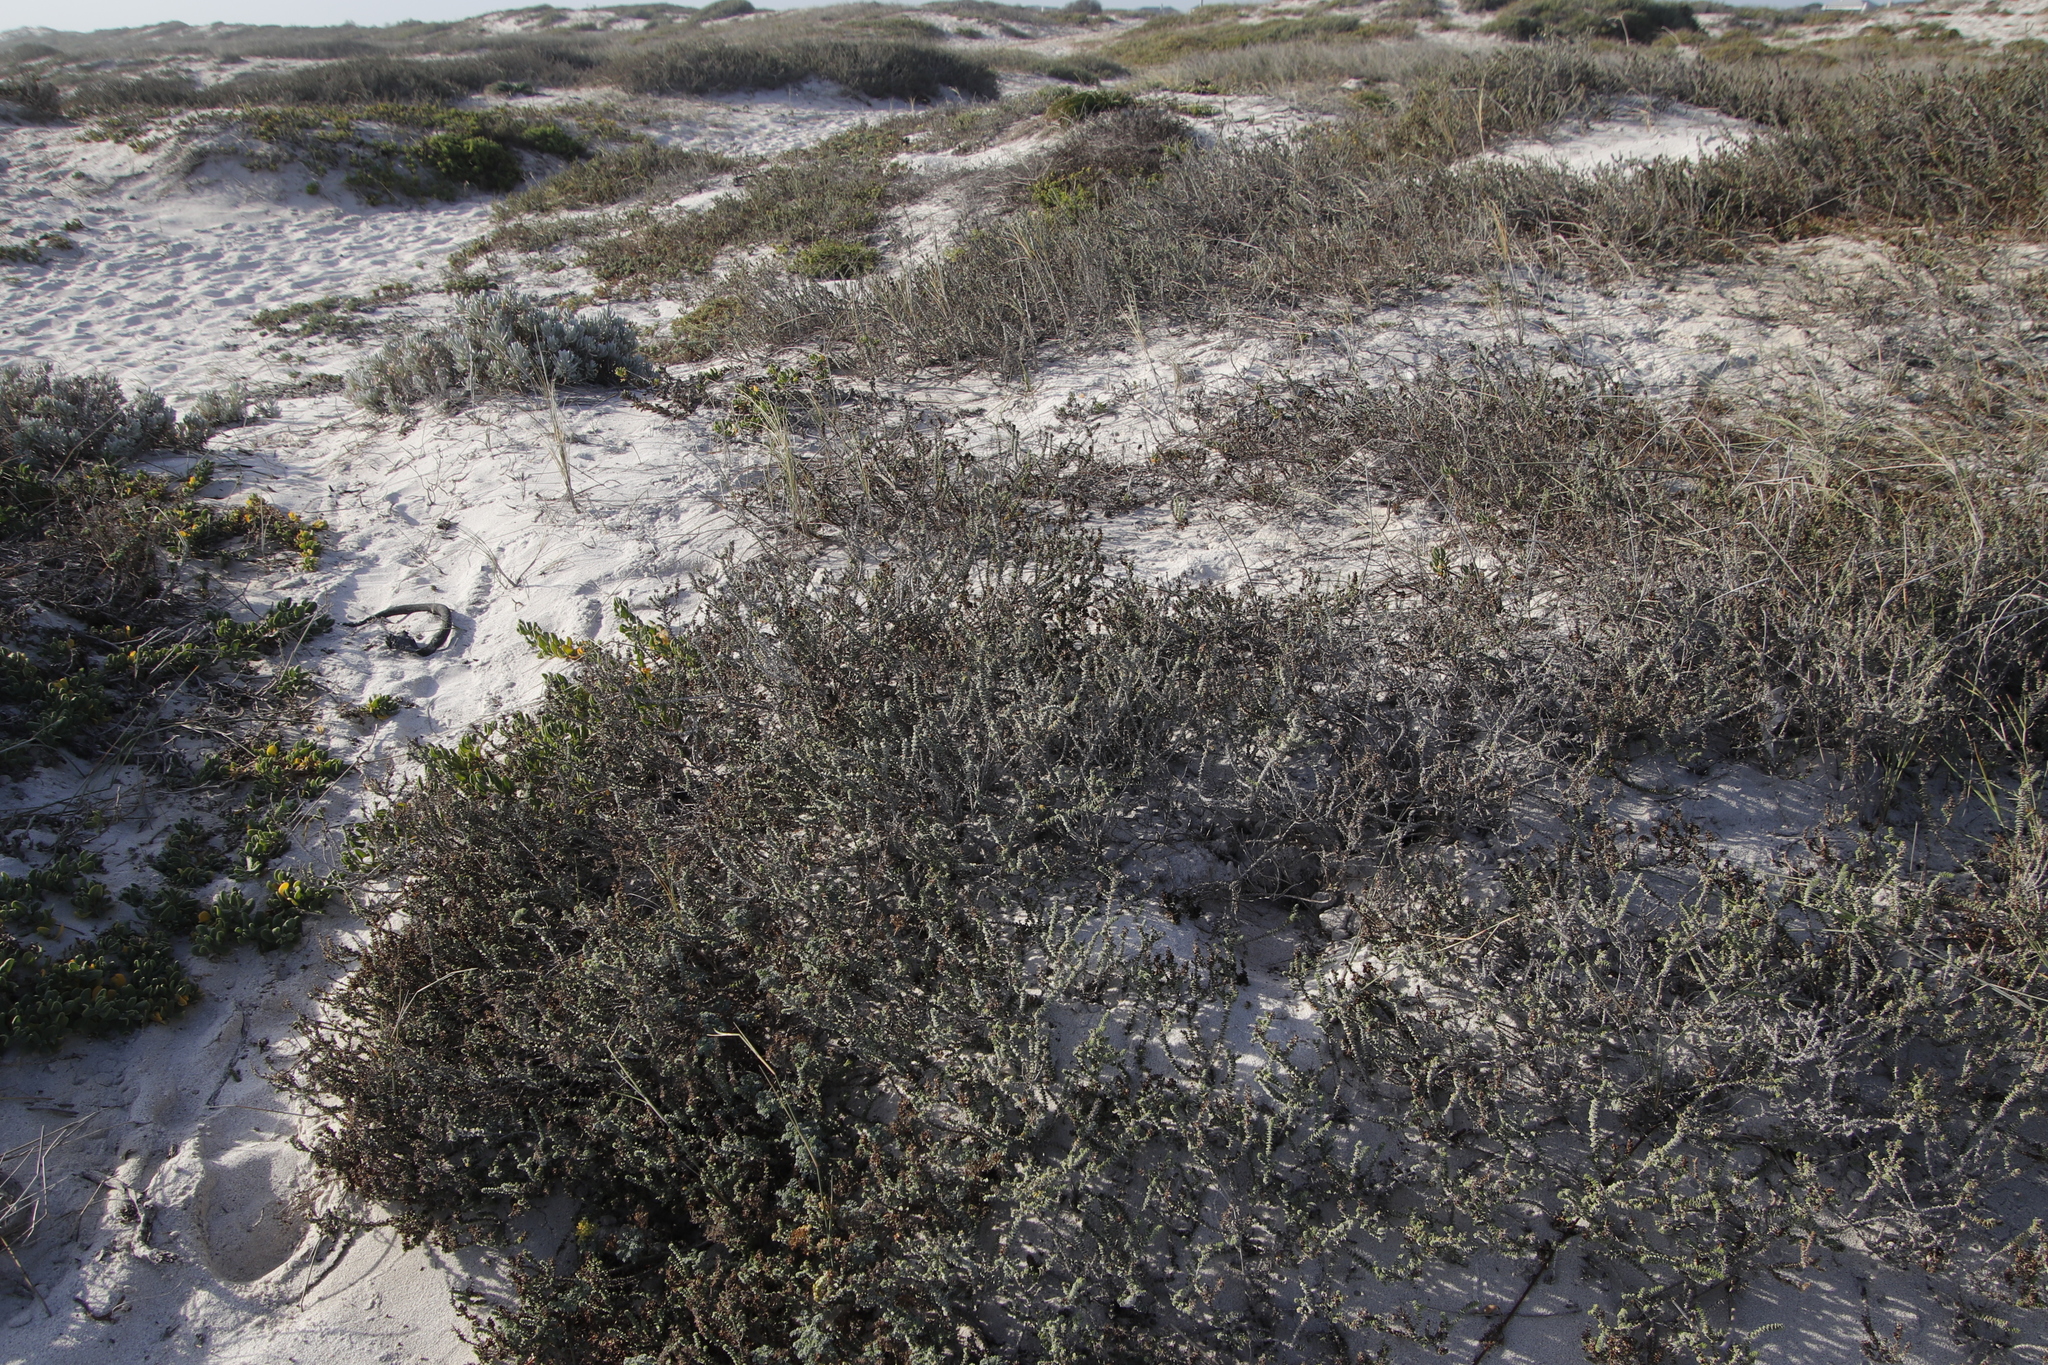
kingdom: Plantae
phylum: Tracheophyta
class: Magnoliopsida
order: Lamiales
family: Scrophulariaceae
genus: Hebenstretia
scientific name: Hebenstretia cordata
